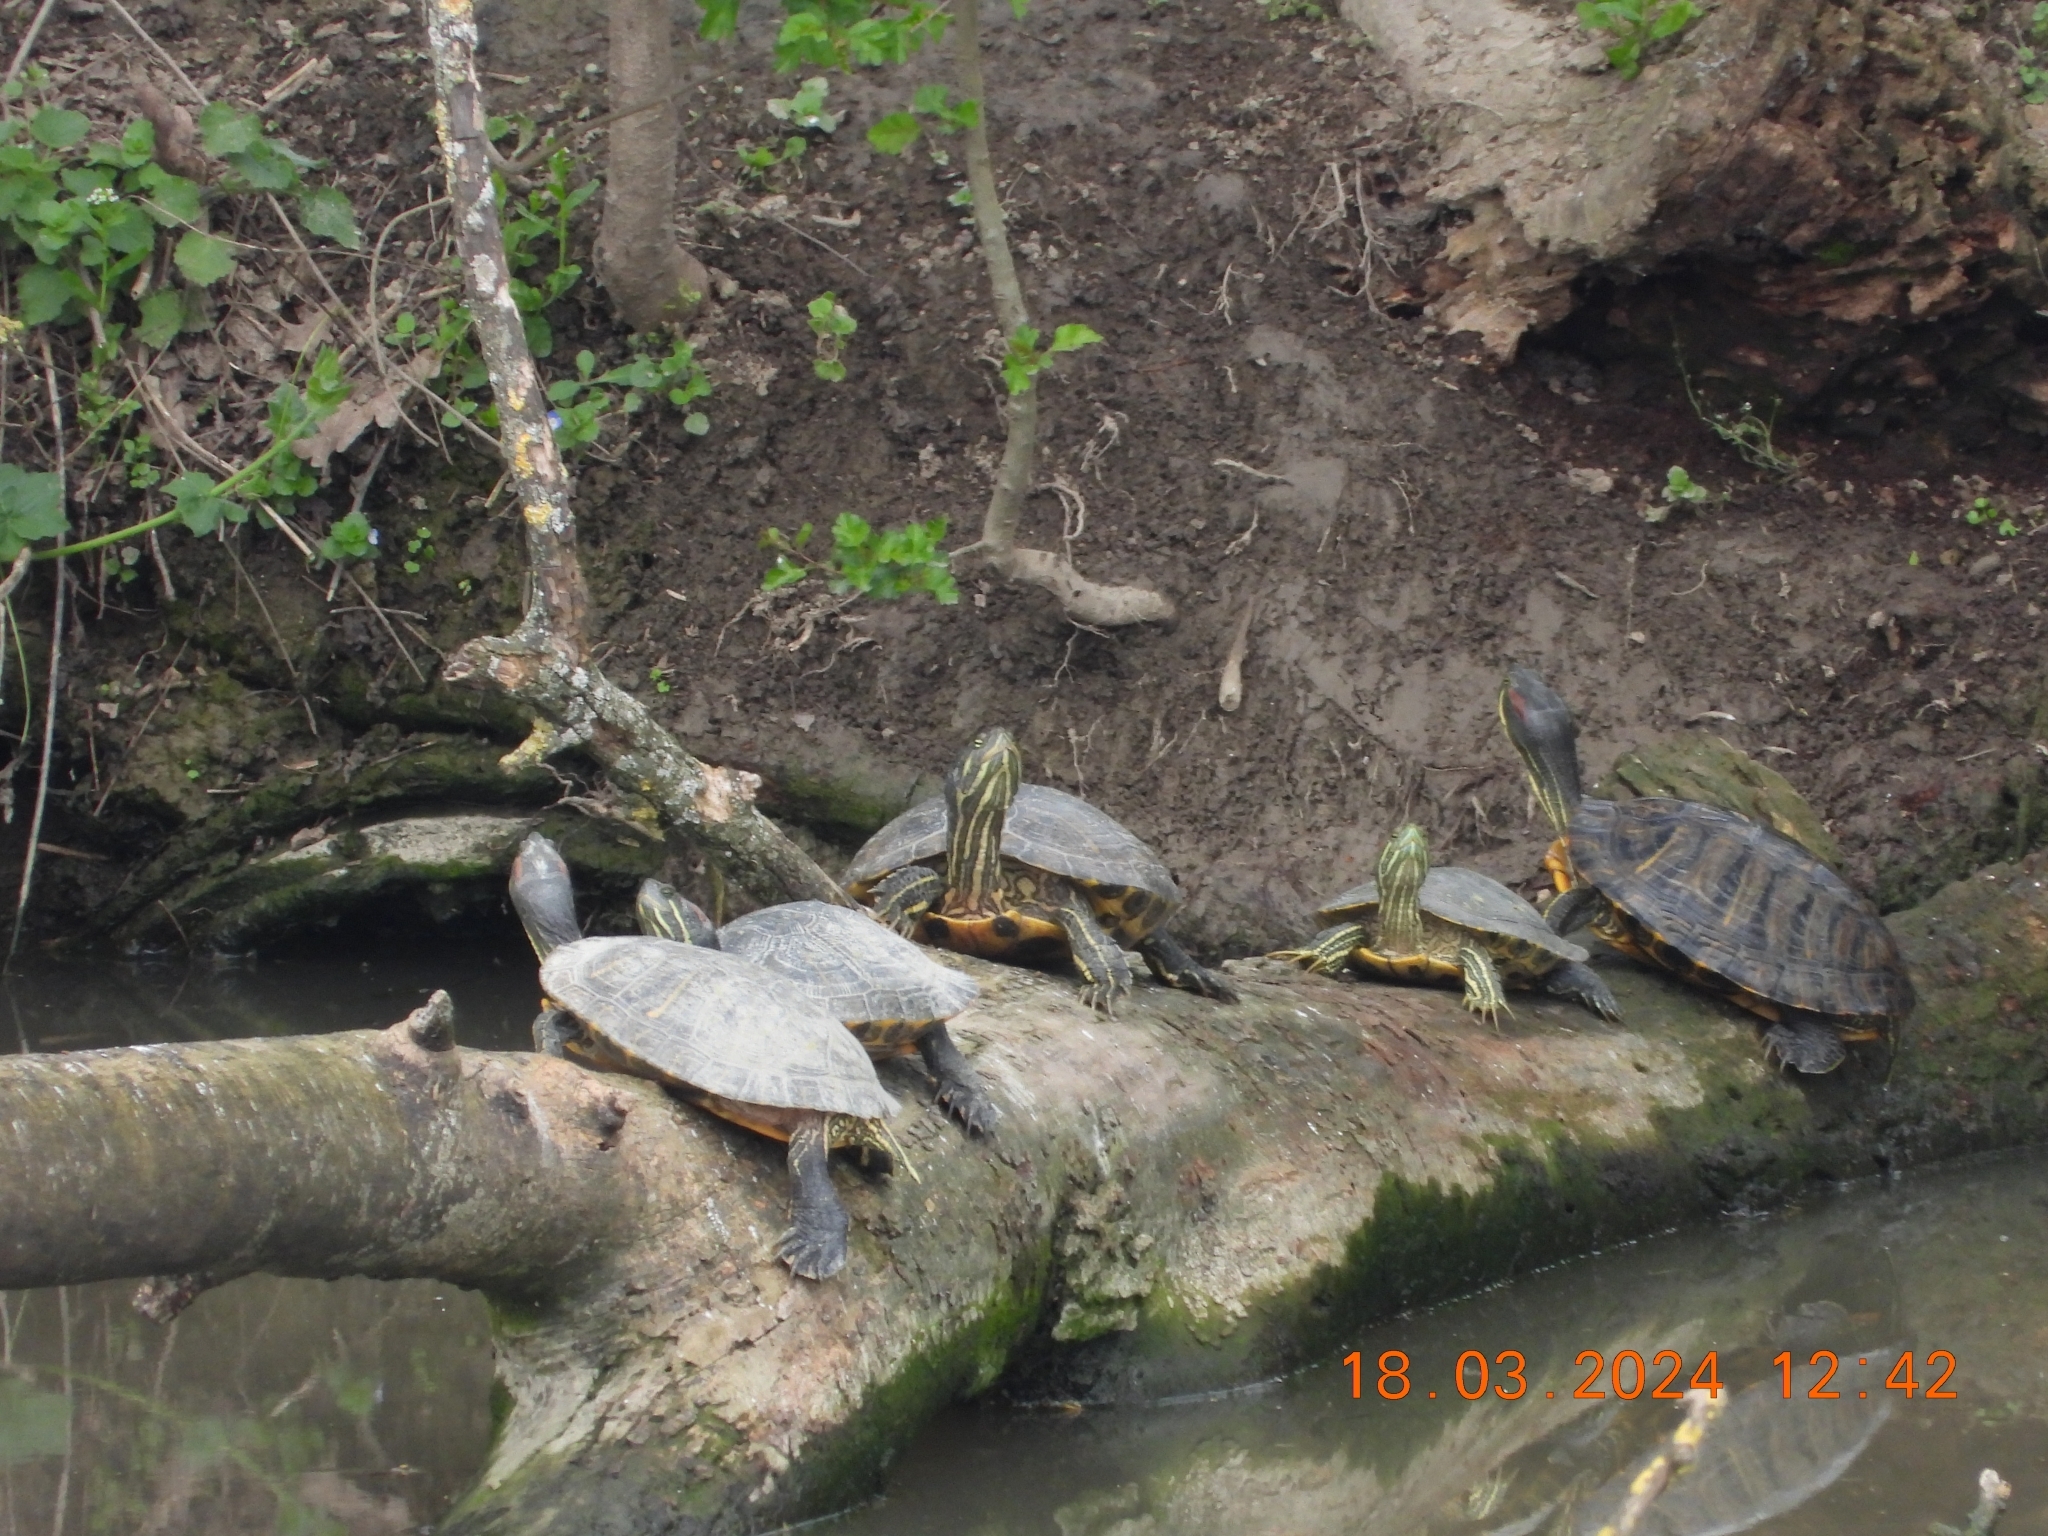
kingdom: Animalia
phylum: Chordata
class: Testudines
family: Emydidae
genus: Trachemys
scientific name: Trachemys scripta
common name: Slider
